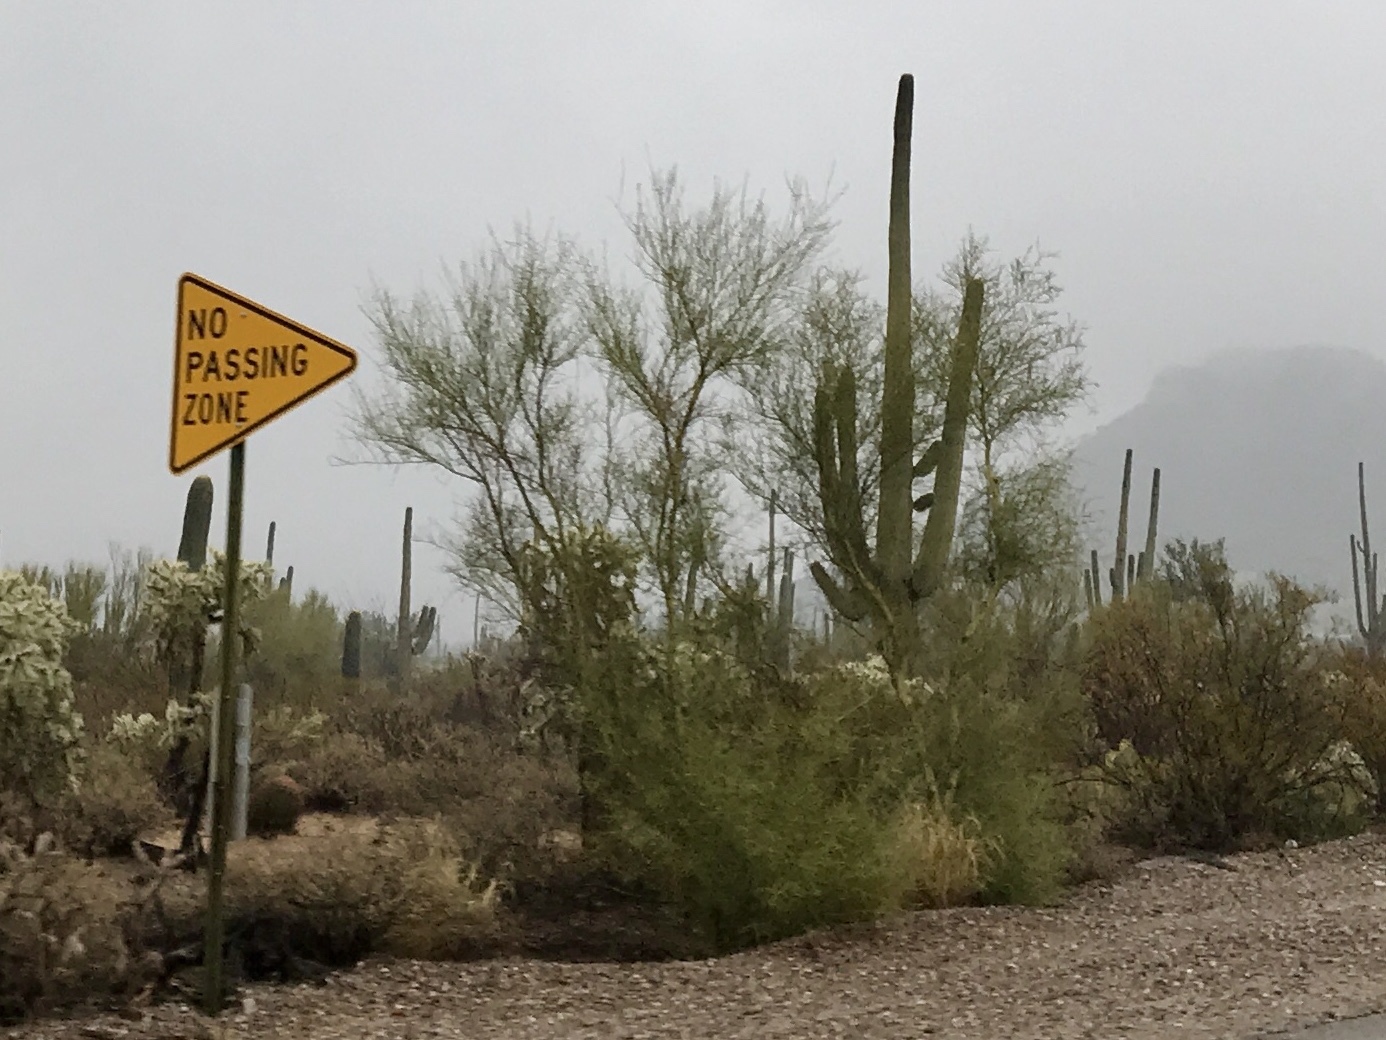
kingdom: Plantae
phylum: Tracheophyta
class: Magnoliopsida
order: Fabales
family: Fabaceae
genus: Parkinsonia
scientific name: Parkinsonia microphylla
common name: Yellow paloverde
